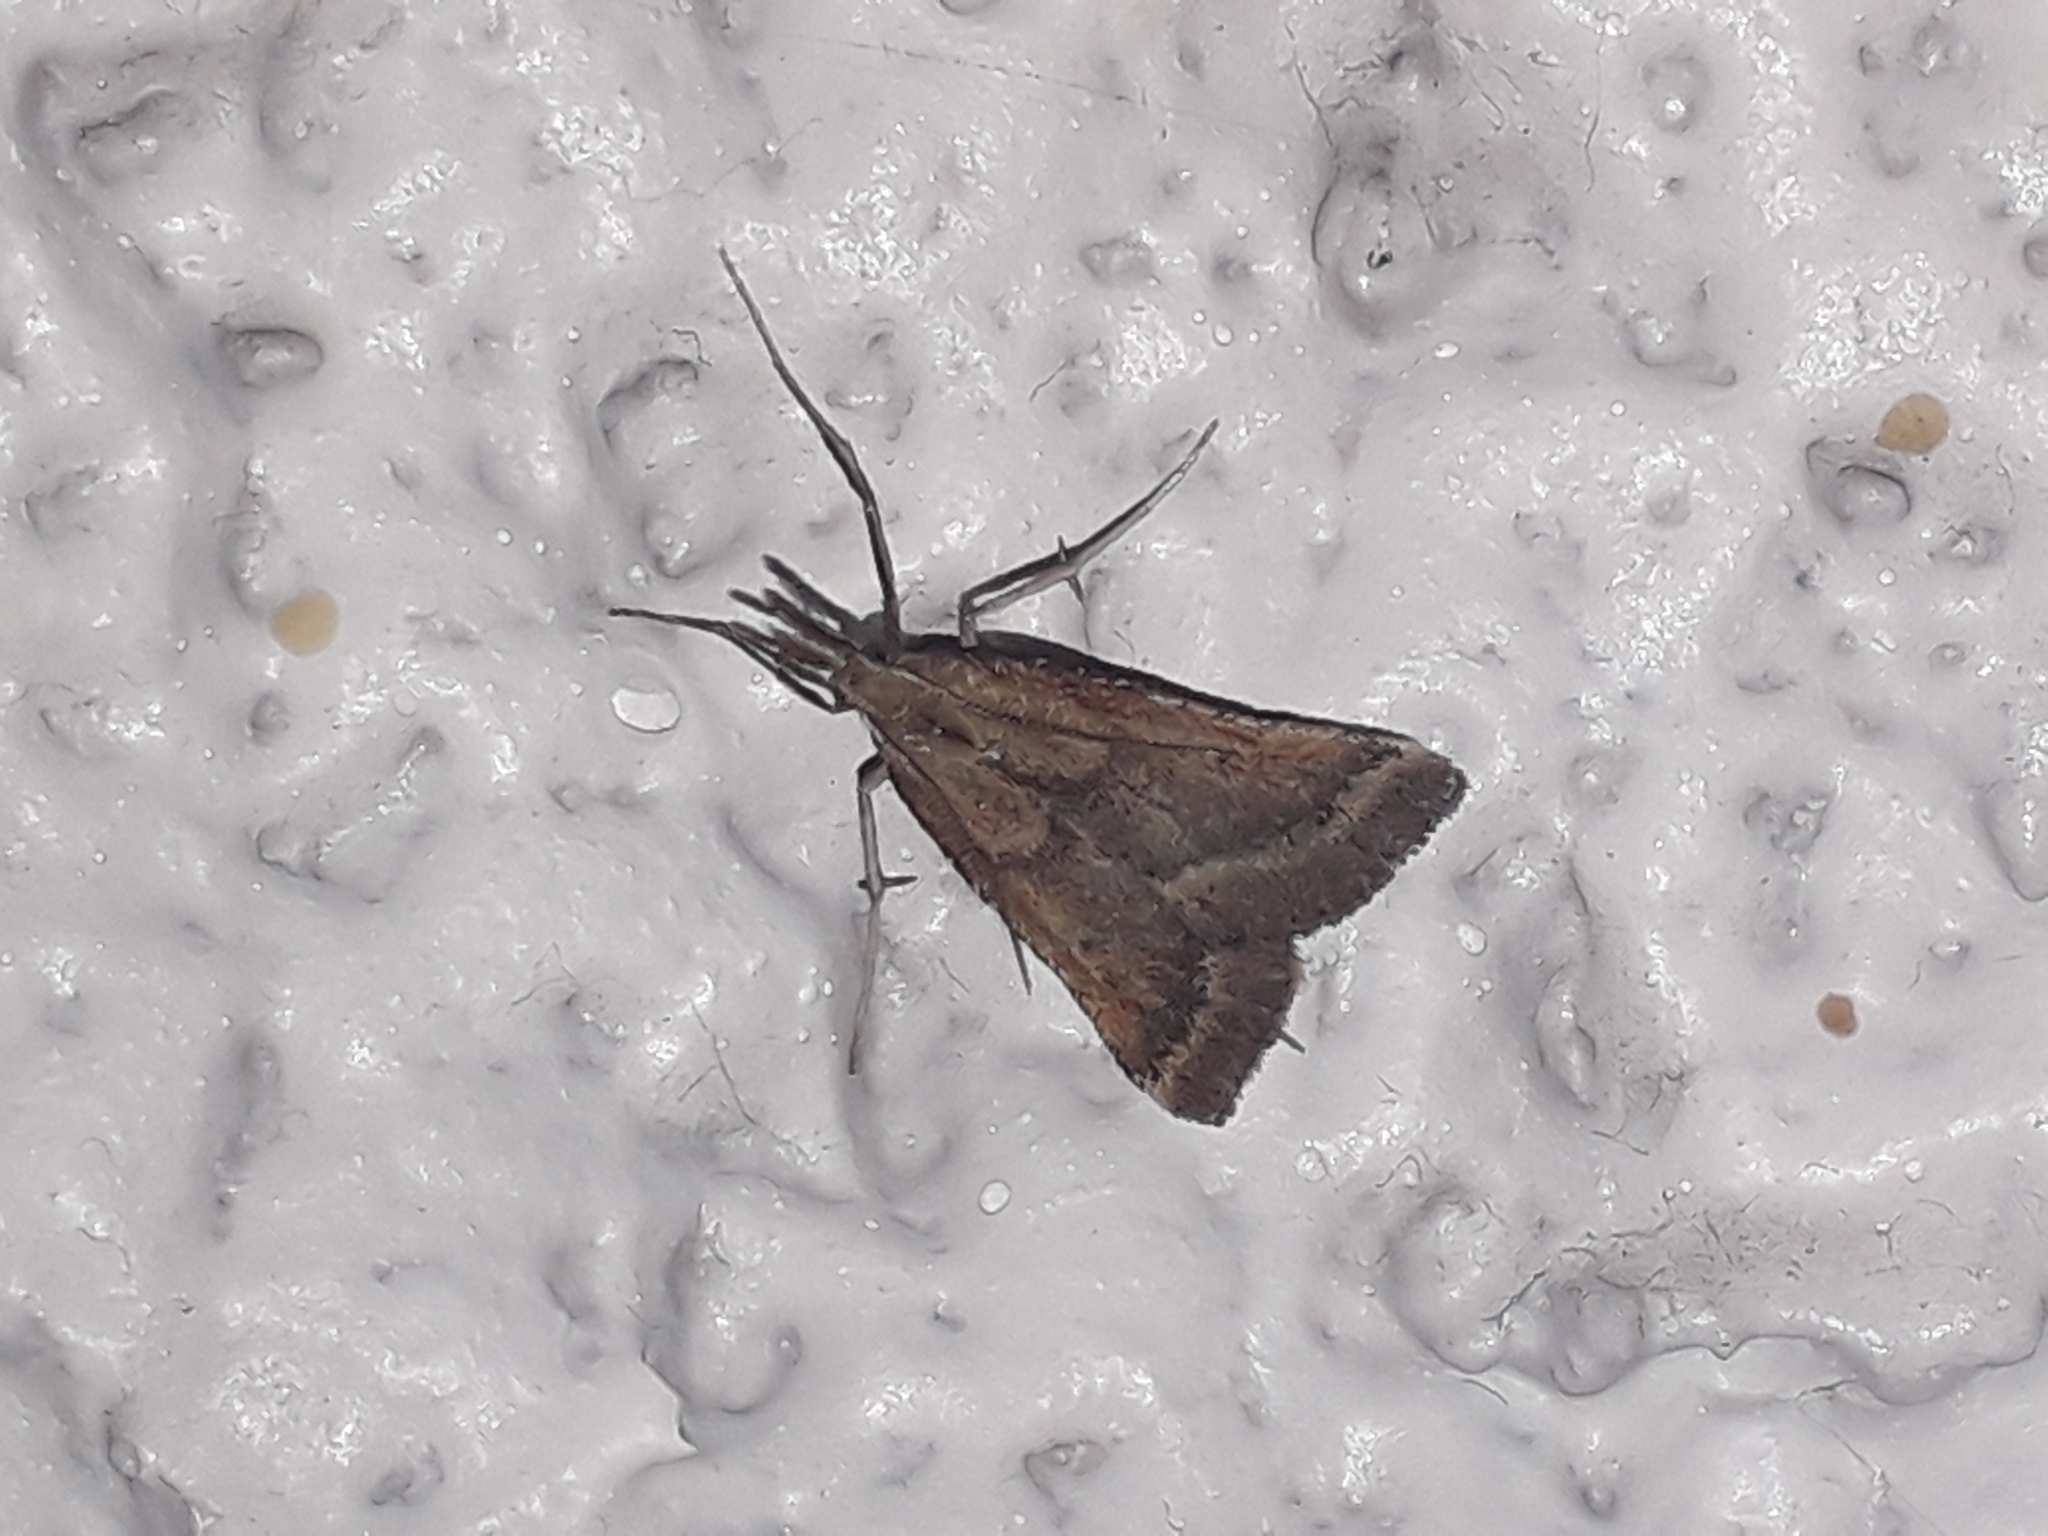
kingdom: Animalia
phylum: Arthropoda
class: Insecta
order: Lepidoptera
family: Pyralidae
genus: Synaphe
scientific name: Synaphe punctalis
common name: Long-legged tabby
